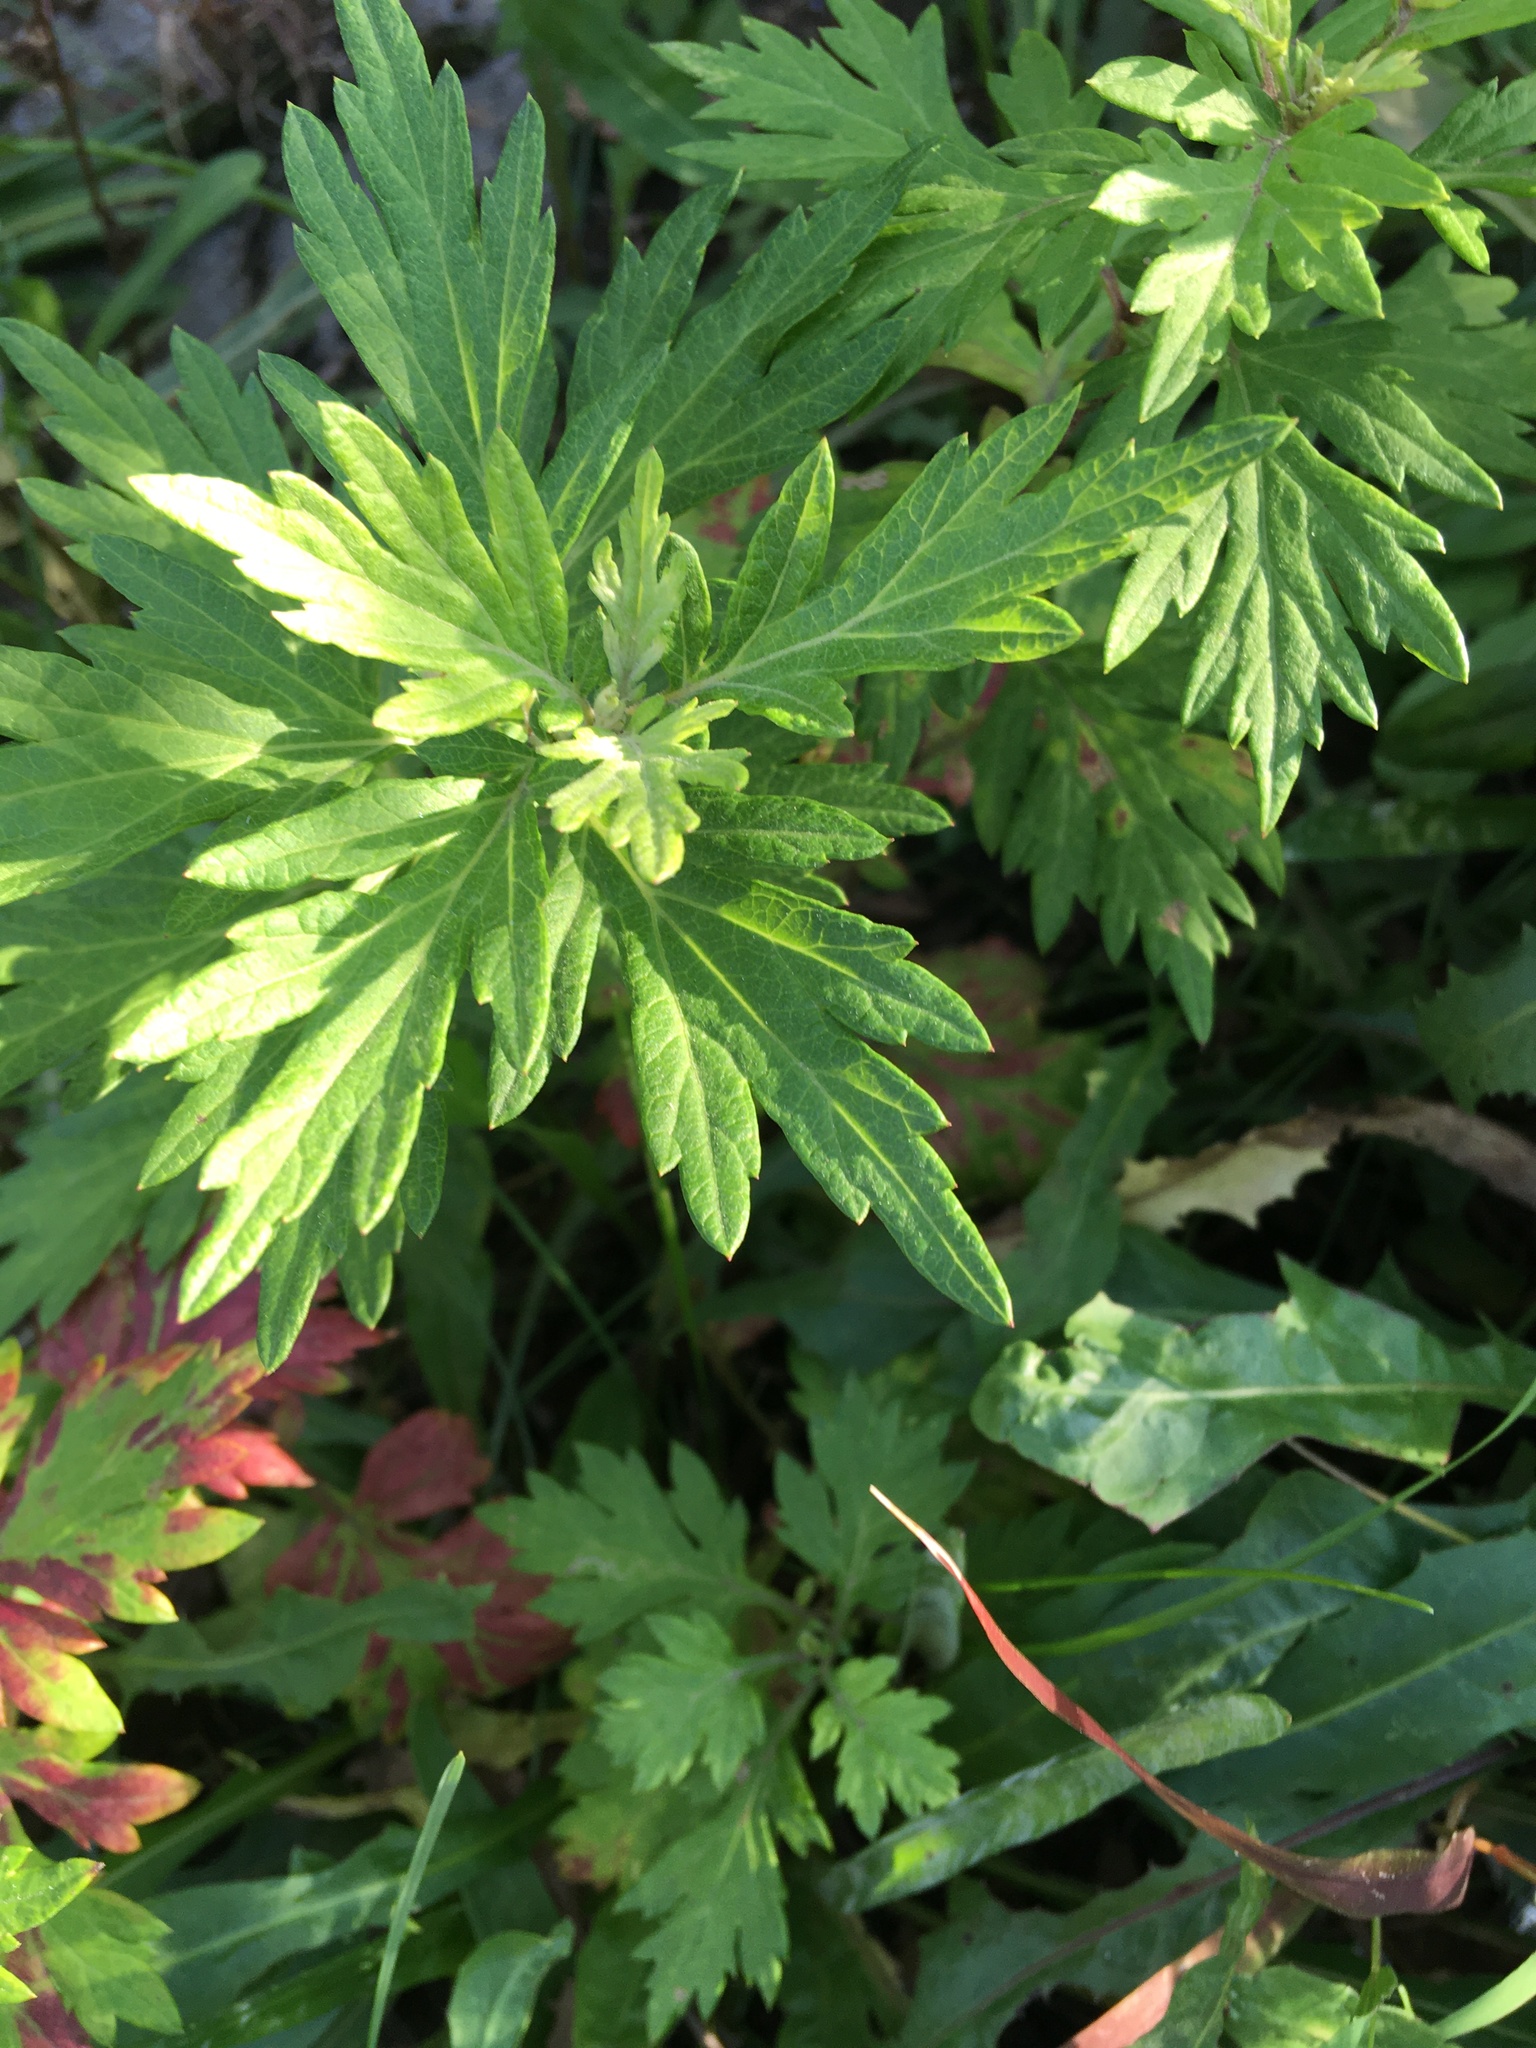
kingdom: Plantae
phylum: Tracheophyta
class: Magnoliopsida
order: Asterales
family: Asteraceae
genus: Artemisia
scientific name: Artemisia vulgaris
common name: Mugwort
